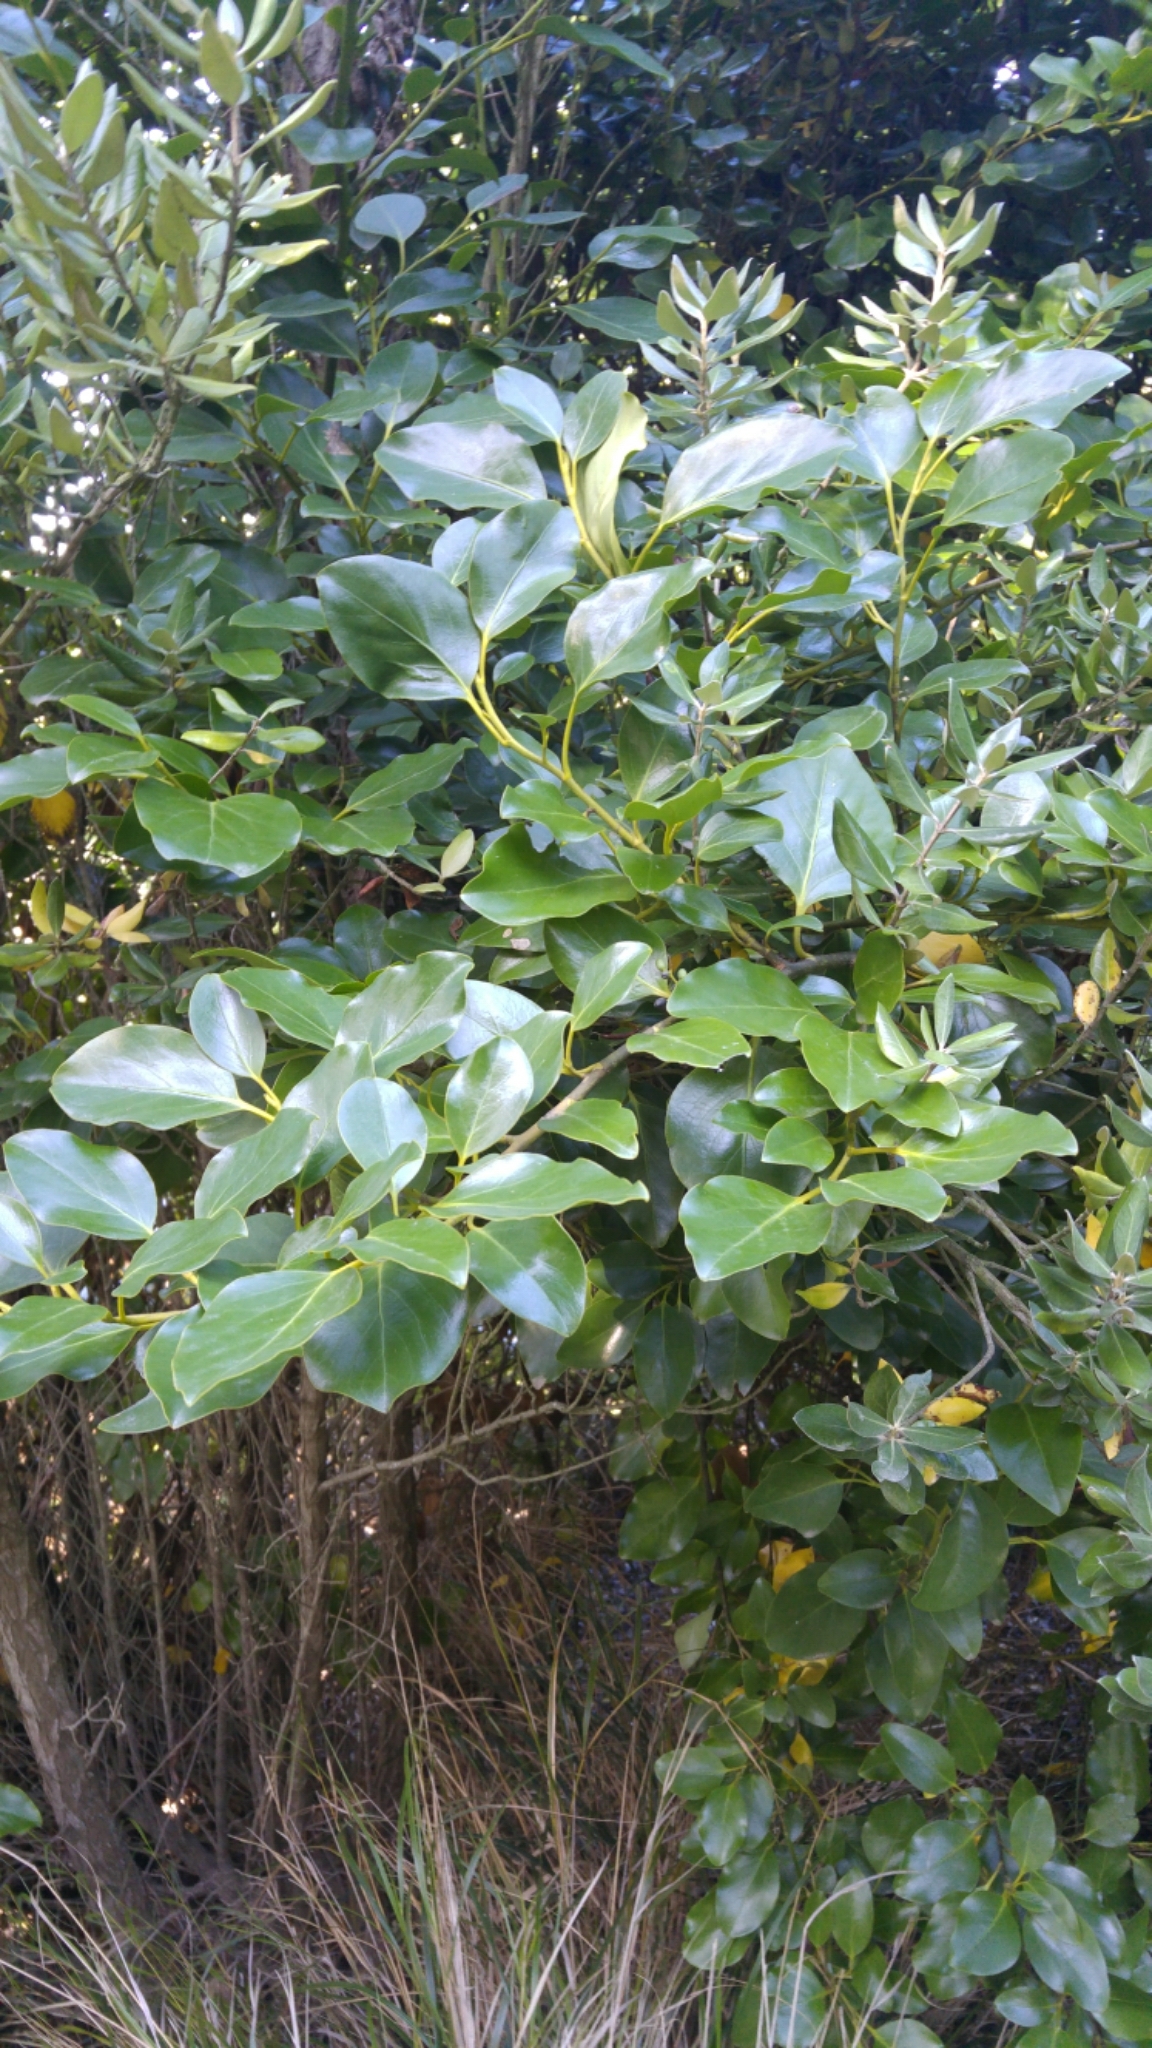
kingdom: Plantae
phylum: Tracheophyta
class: Magnoliopsida
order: Apiales
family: Griseliniaceae
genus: Griselinia
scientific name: Griselinia littoralis
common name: New zealand broadleaf
